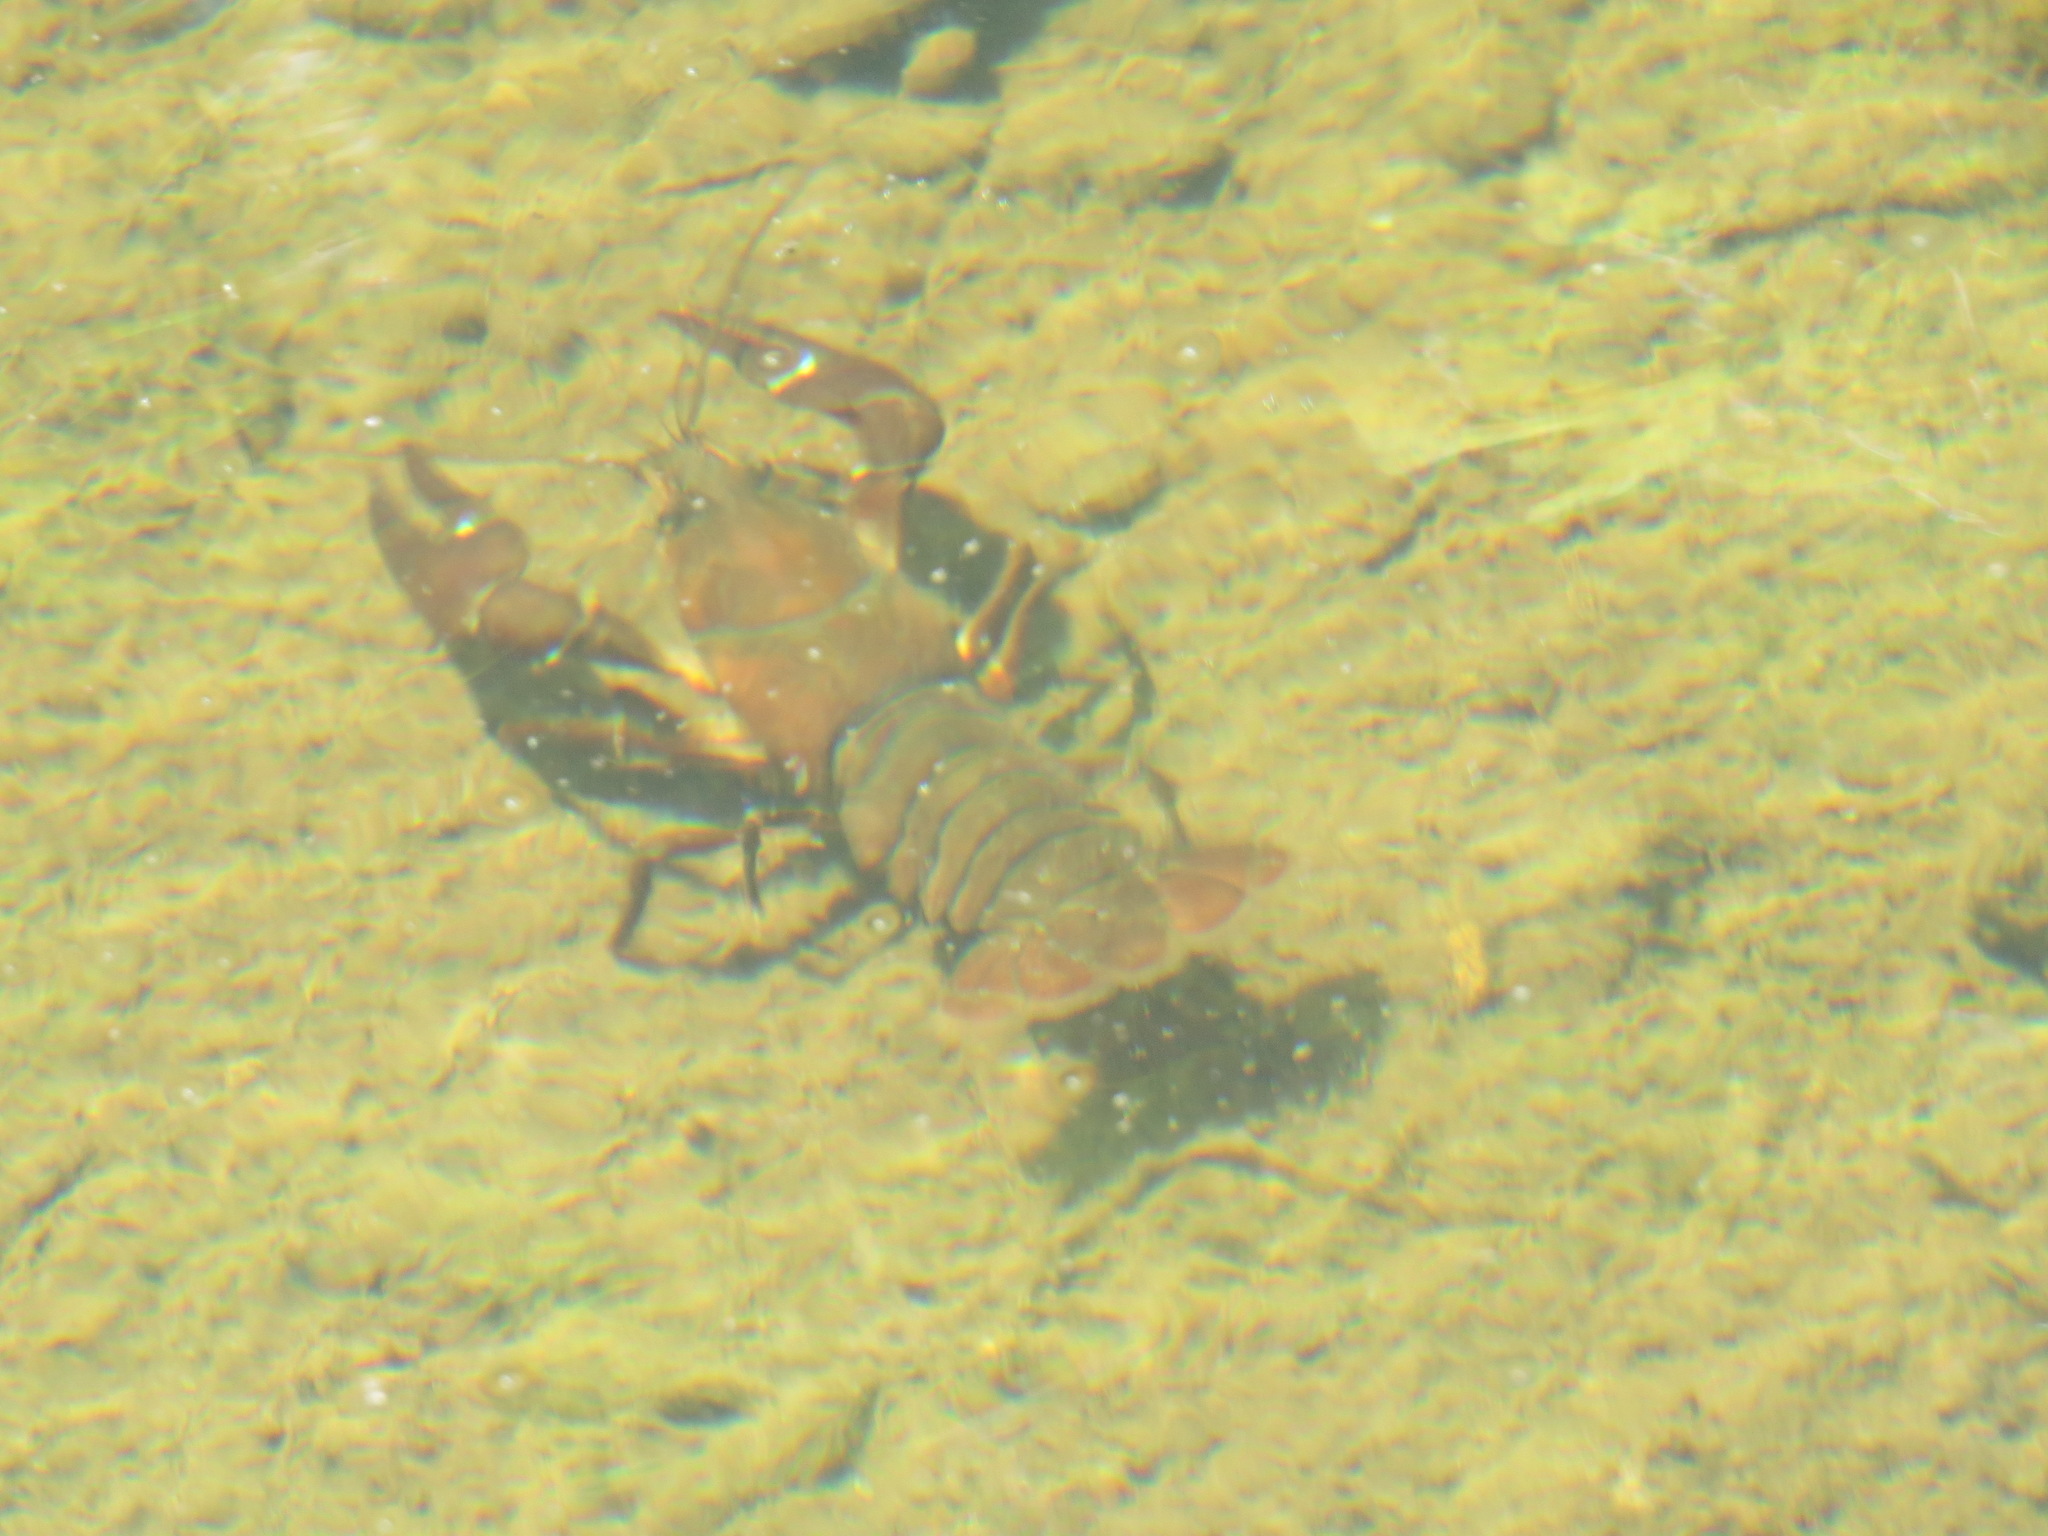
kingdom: Animalia
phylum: Arthropoda
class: Malacostraca
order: Decapoda
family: Astacidae
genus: Pacifastacus
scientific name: Pacifastacus leniusculus
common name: Signal crayfish
